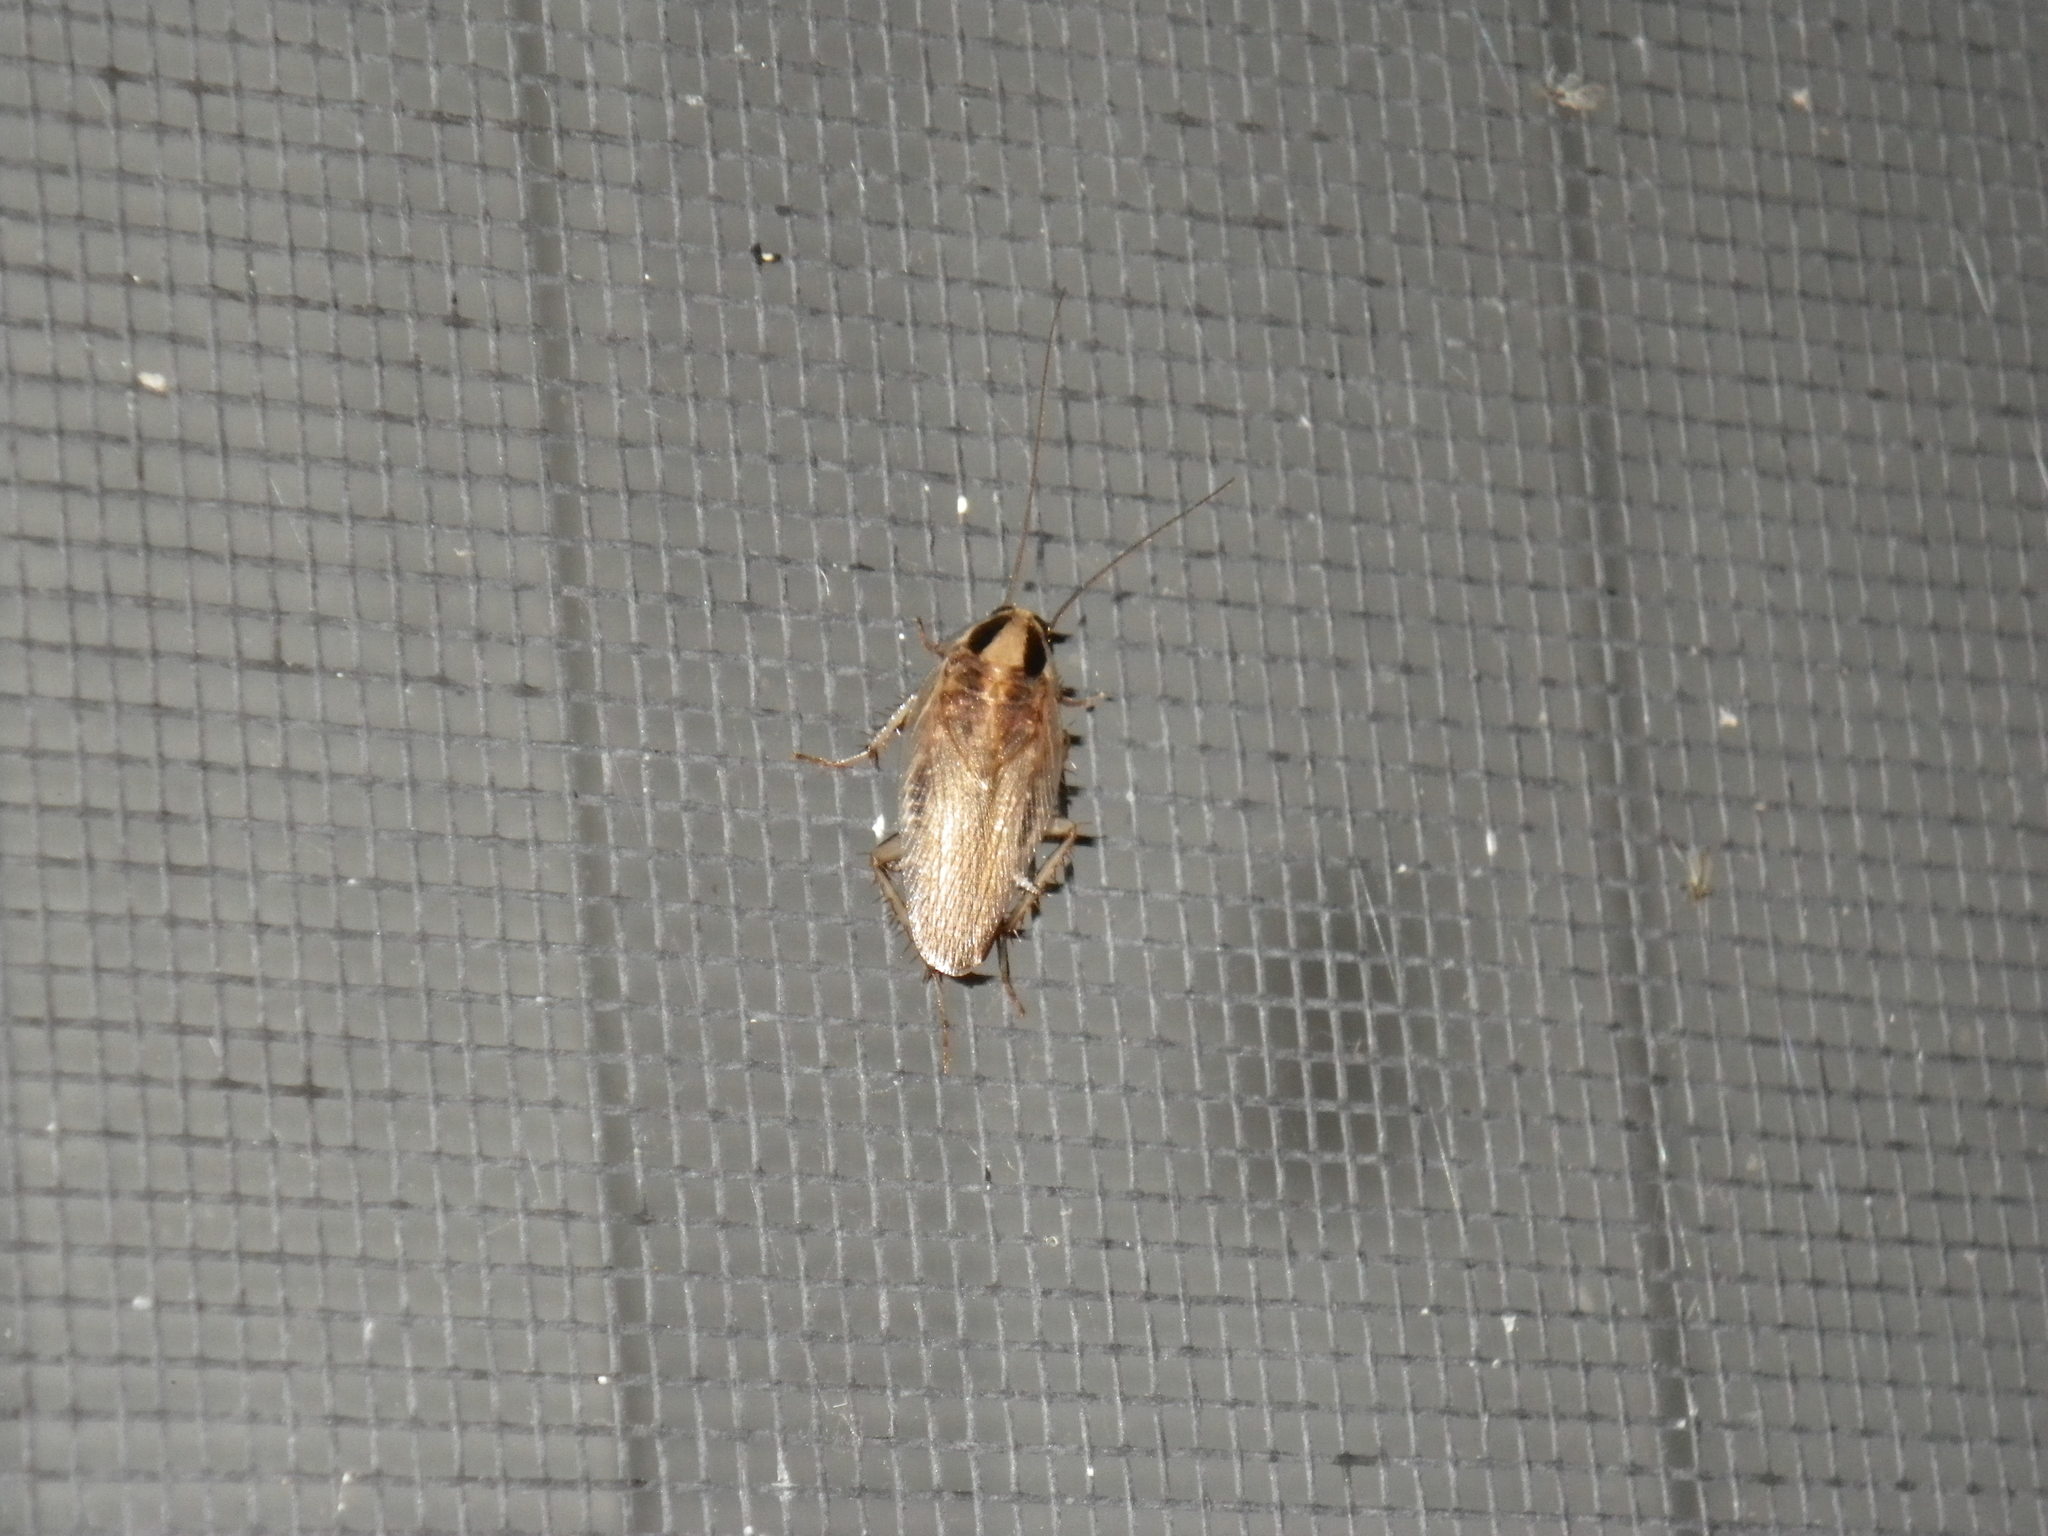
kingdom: Animalia
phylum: Arthropoda
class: Insecta
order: Blattodea
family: Ectobiidae
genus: Blattella
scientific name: Blattella germanica
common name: German cockroach
